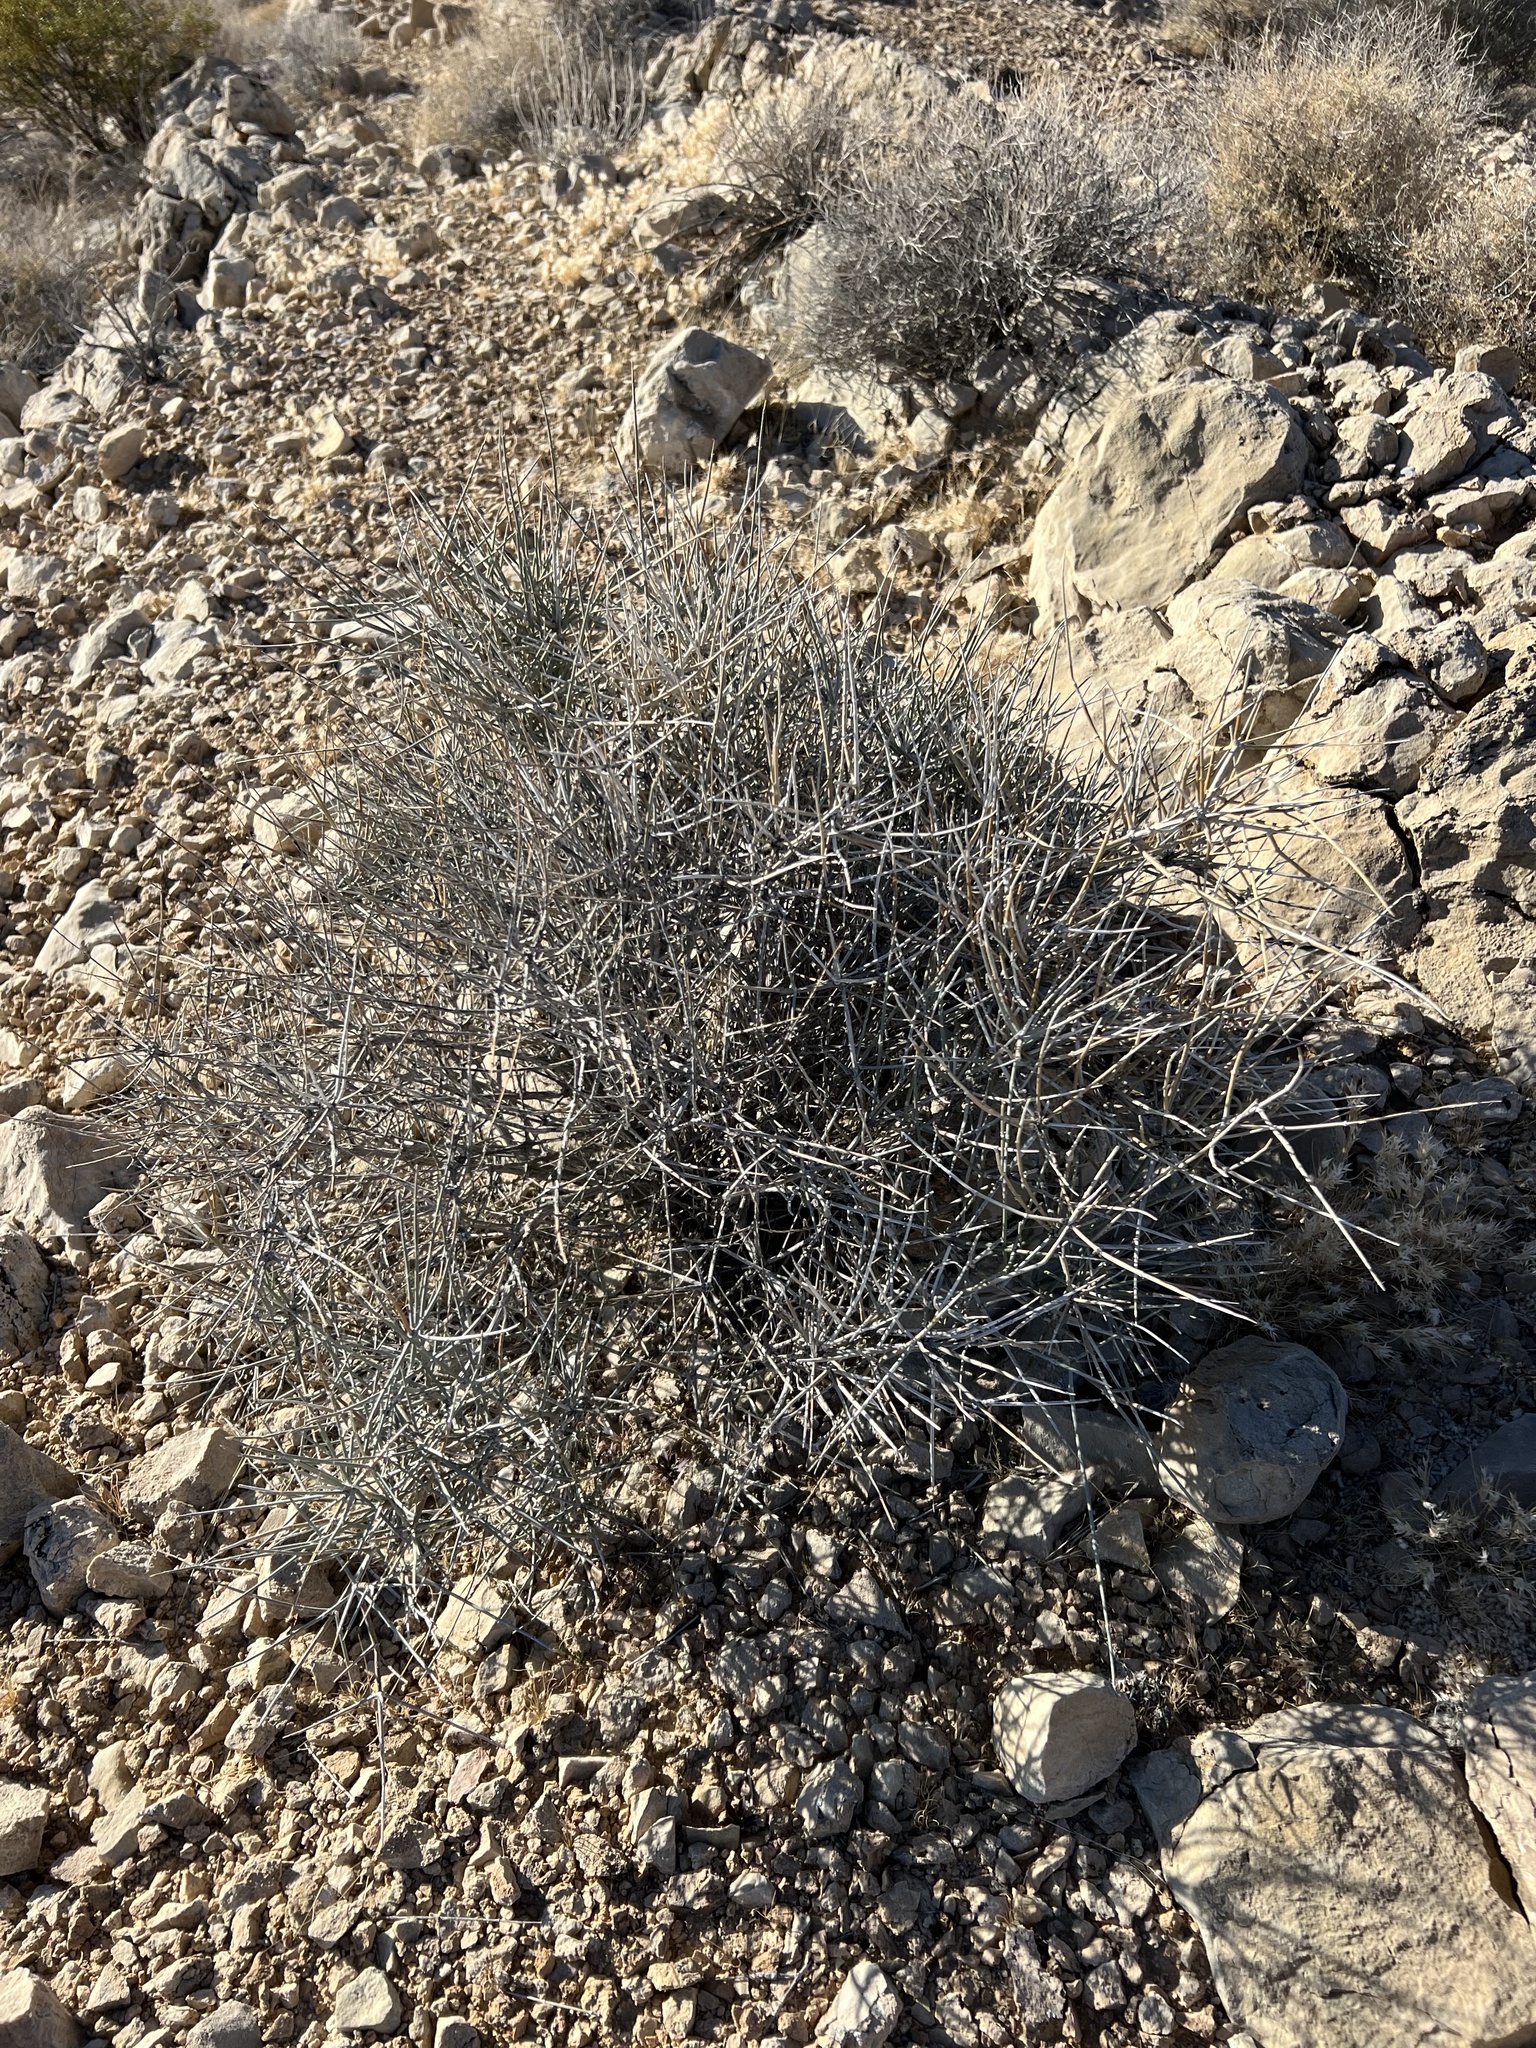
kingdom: Plantae
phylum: Tracheophyta
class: Gnetopsida
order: Ephedrales
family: Ephedraceae
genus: Ephedra
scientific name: Ephedra nevadensis
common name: Gray ephedra
